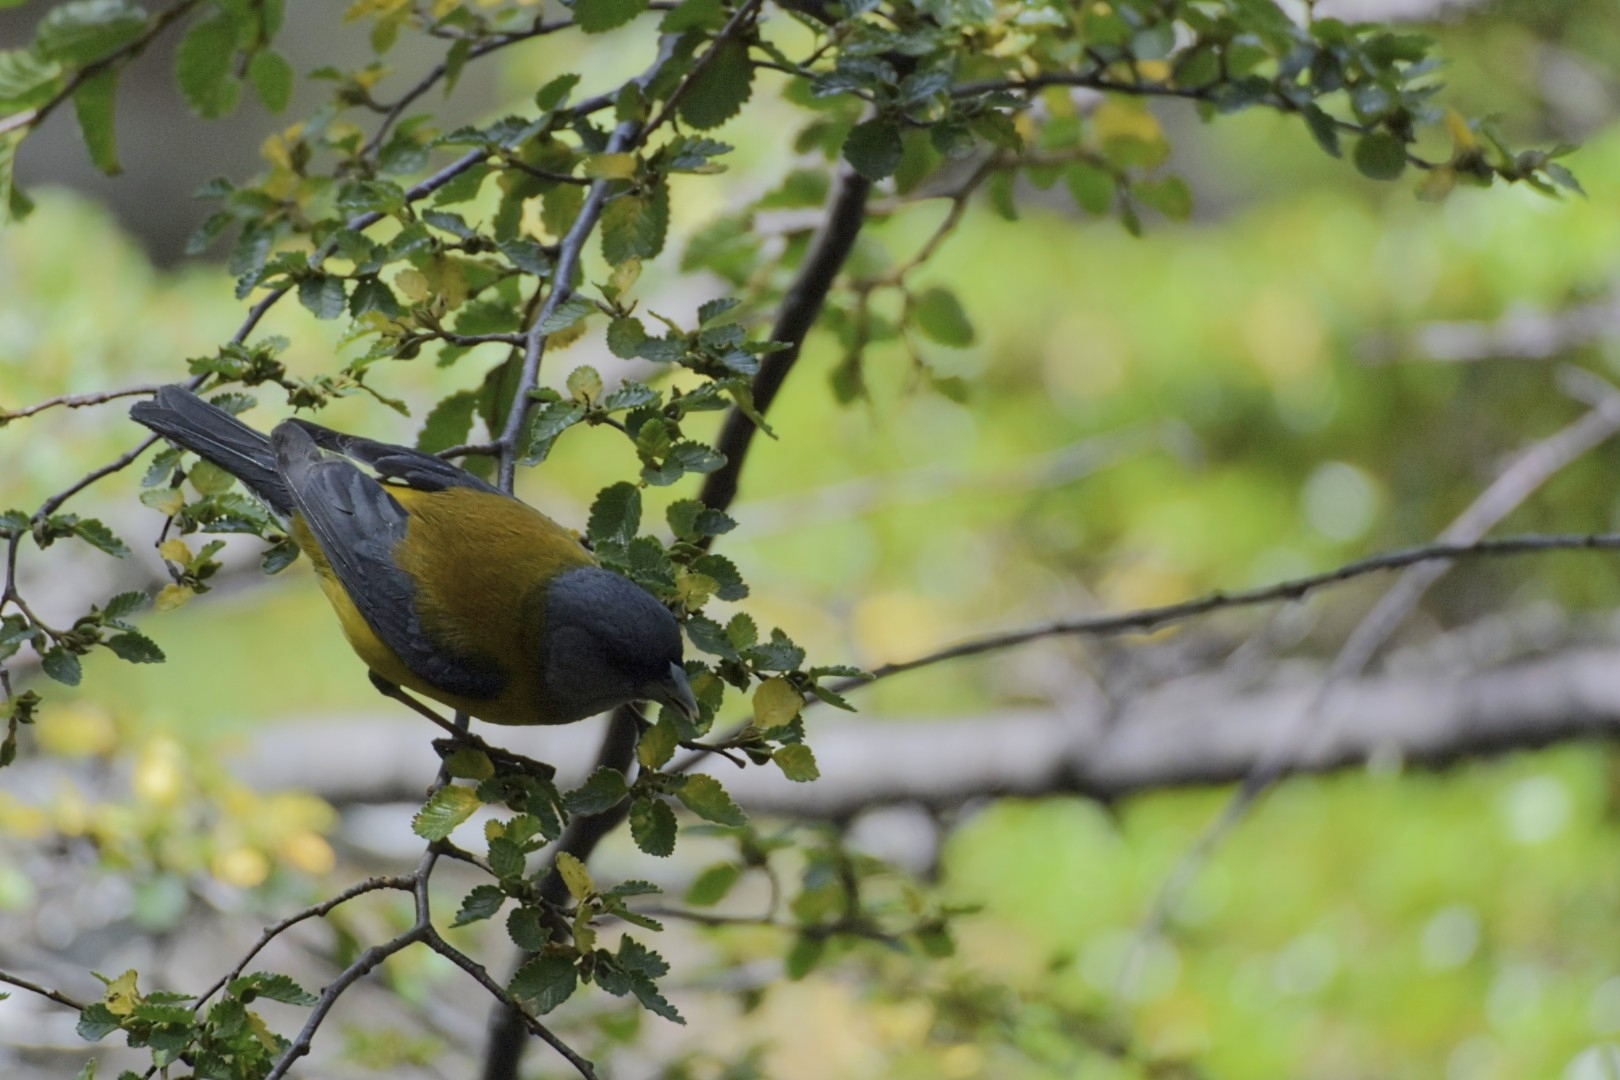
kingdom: Animalia
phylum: Chordata
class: Aves
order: Passeriformes
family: Thraupidae
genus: Phrygilus
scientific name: Phrygilus gayi
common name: Grey-hooded sierra finch
